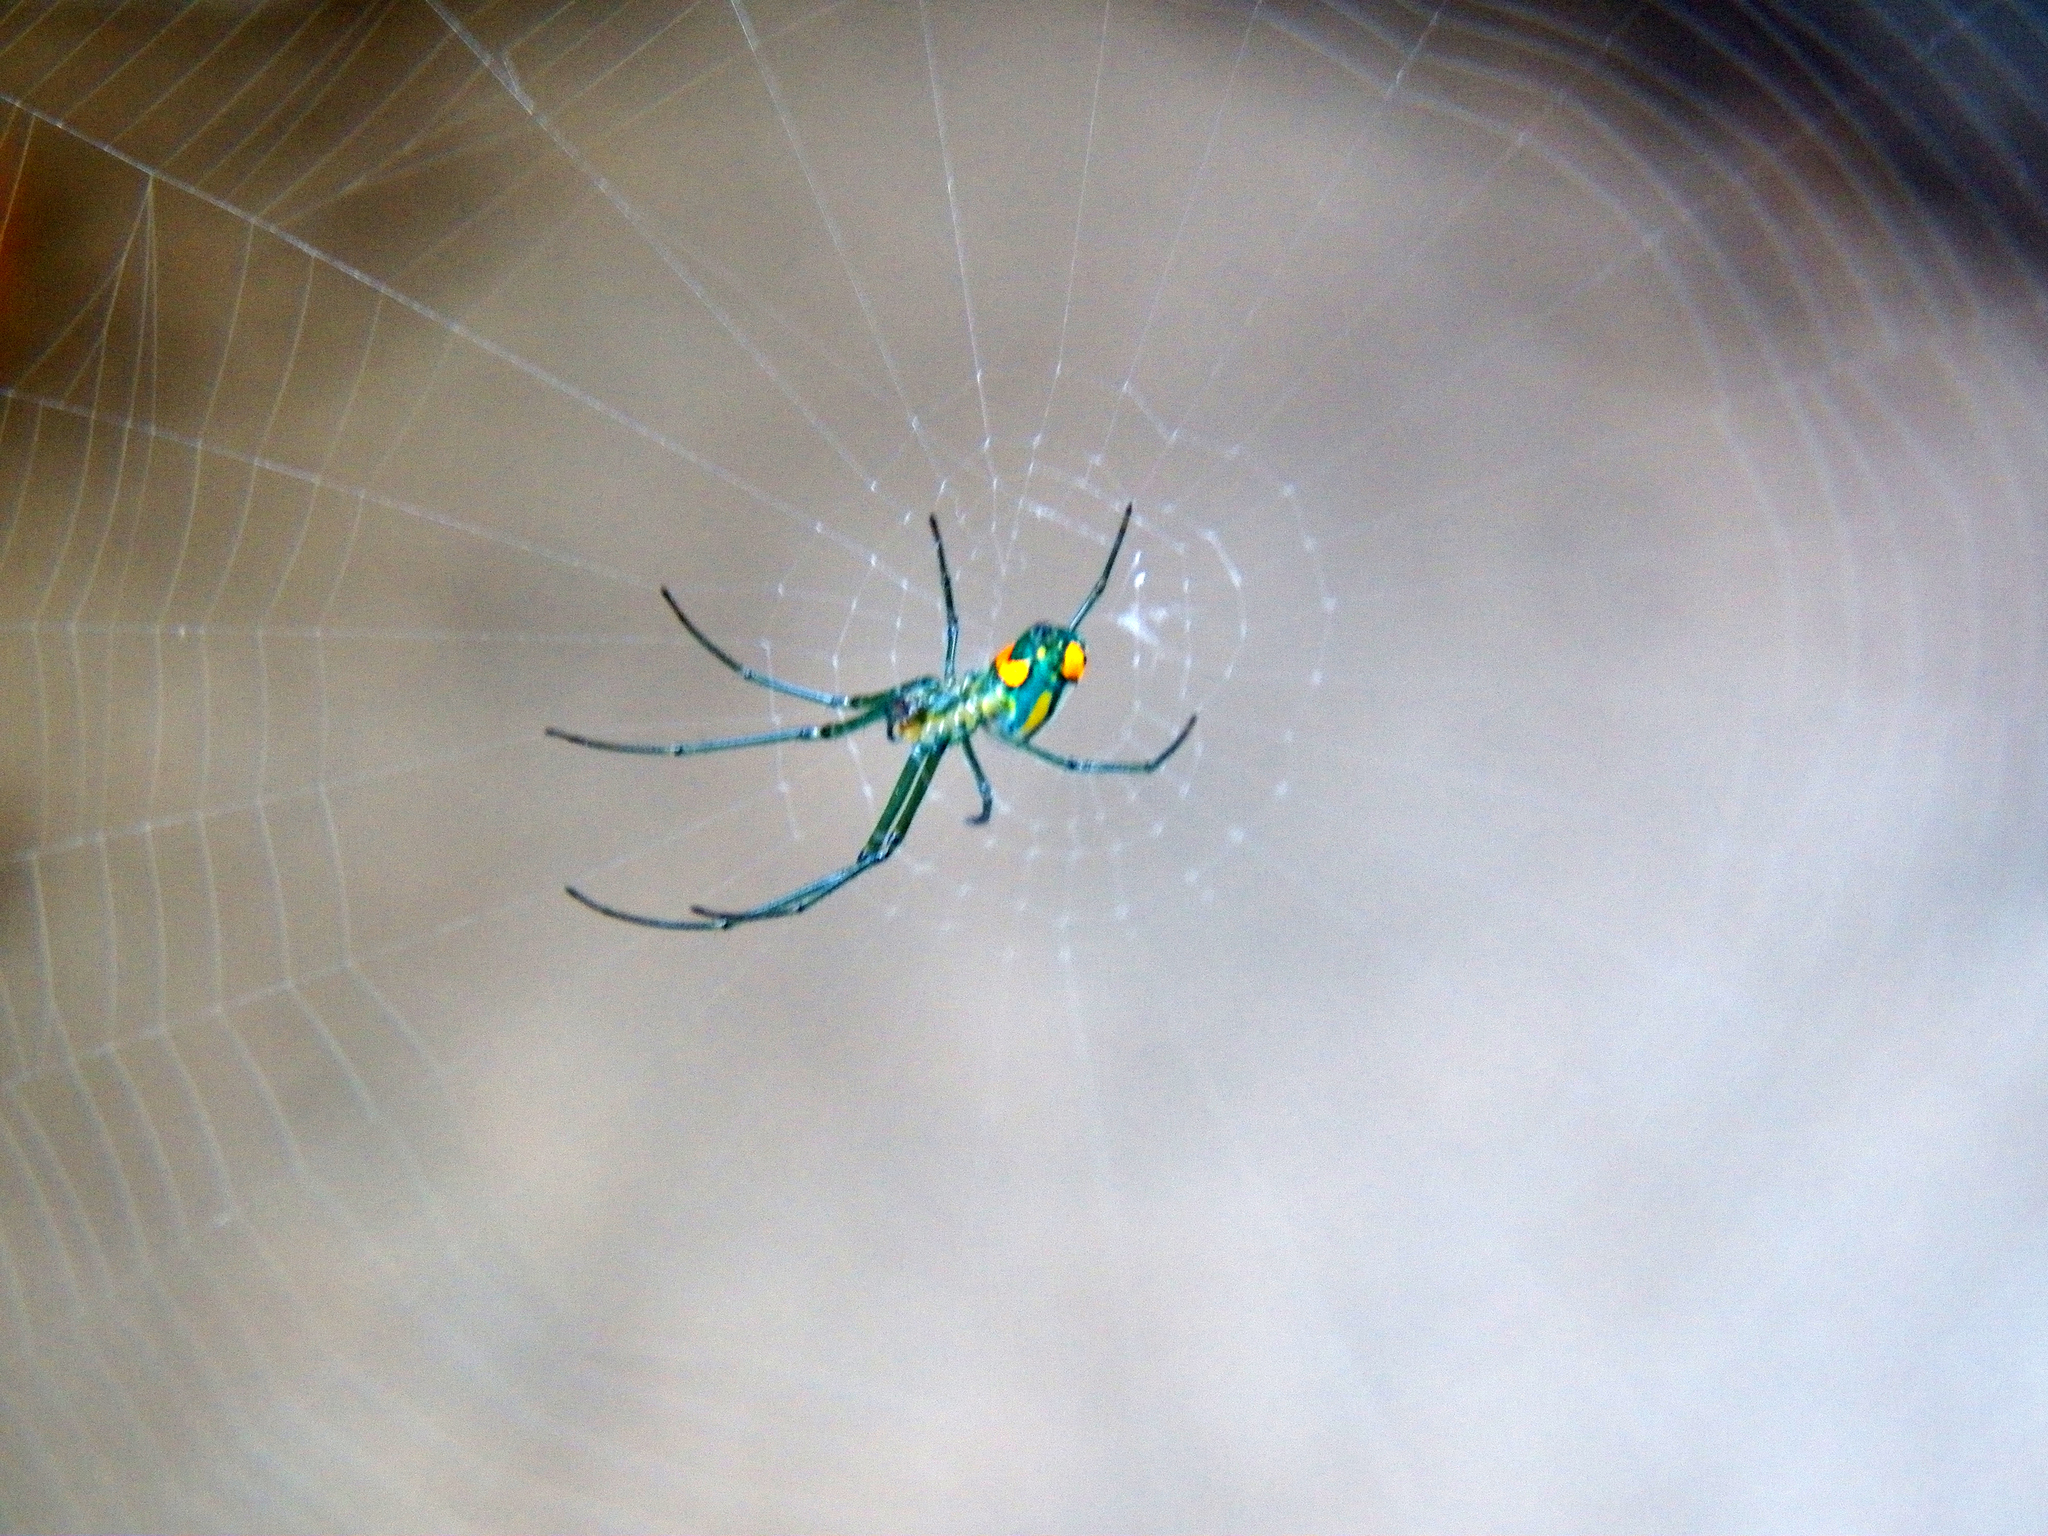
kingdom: Animalia
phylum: Arthropoda
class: Arachnida
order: Araneae
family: Tetragnathidae
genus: Leucauge
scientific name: Leucauge argyrobapta
